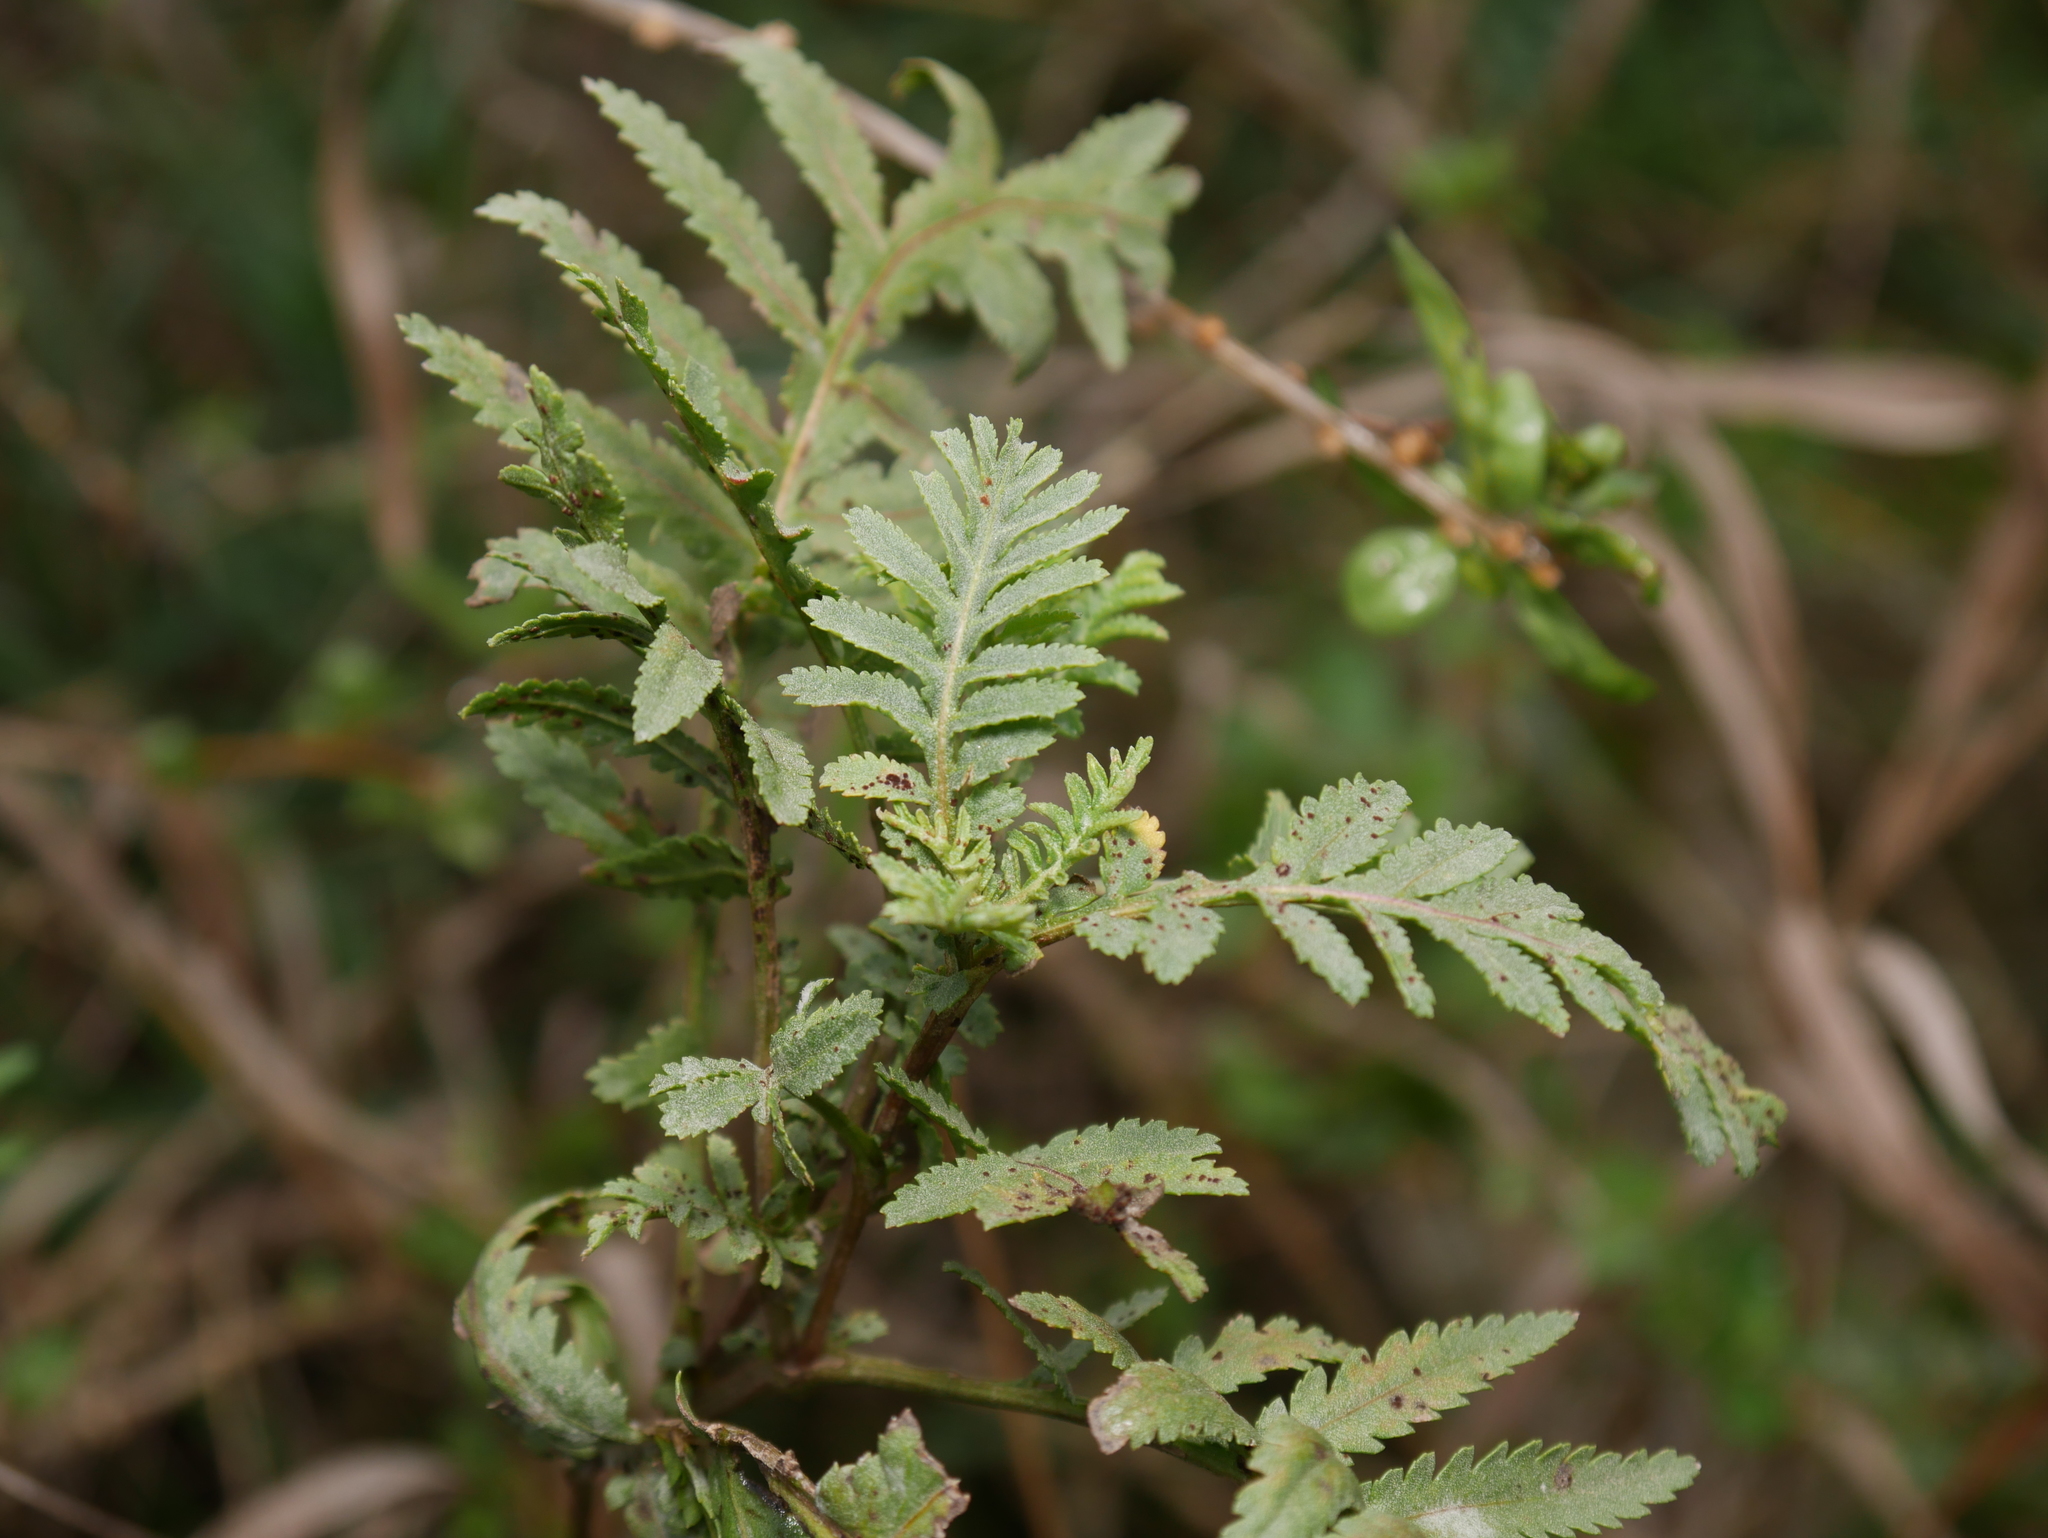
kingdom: Plantae
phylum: Tracheophyta
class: Magnoliopsida
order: Asterales
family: Asteraceae
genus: Tanacetum
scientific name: Tanacetum vulgare
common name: Common tansy
